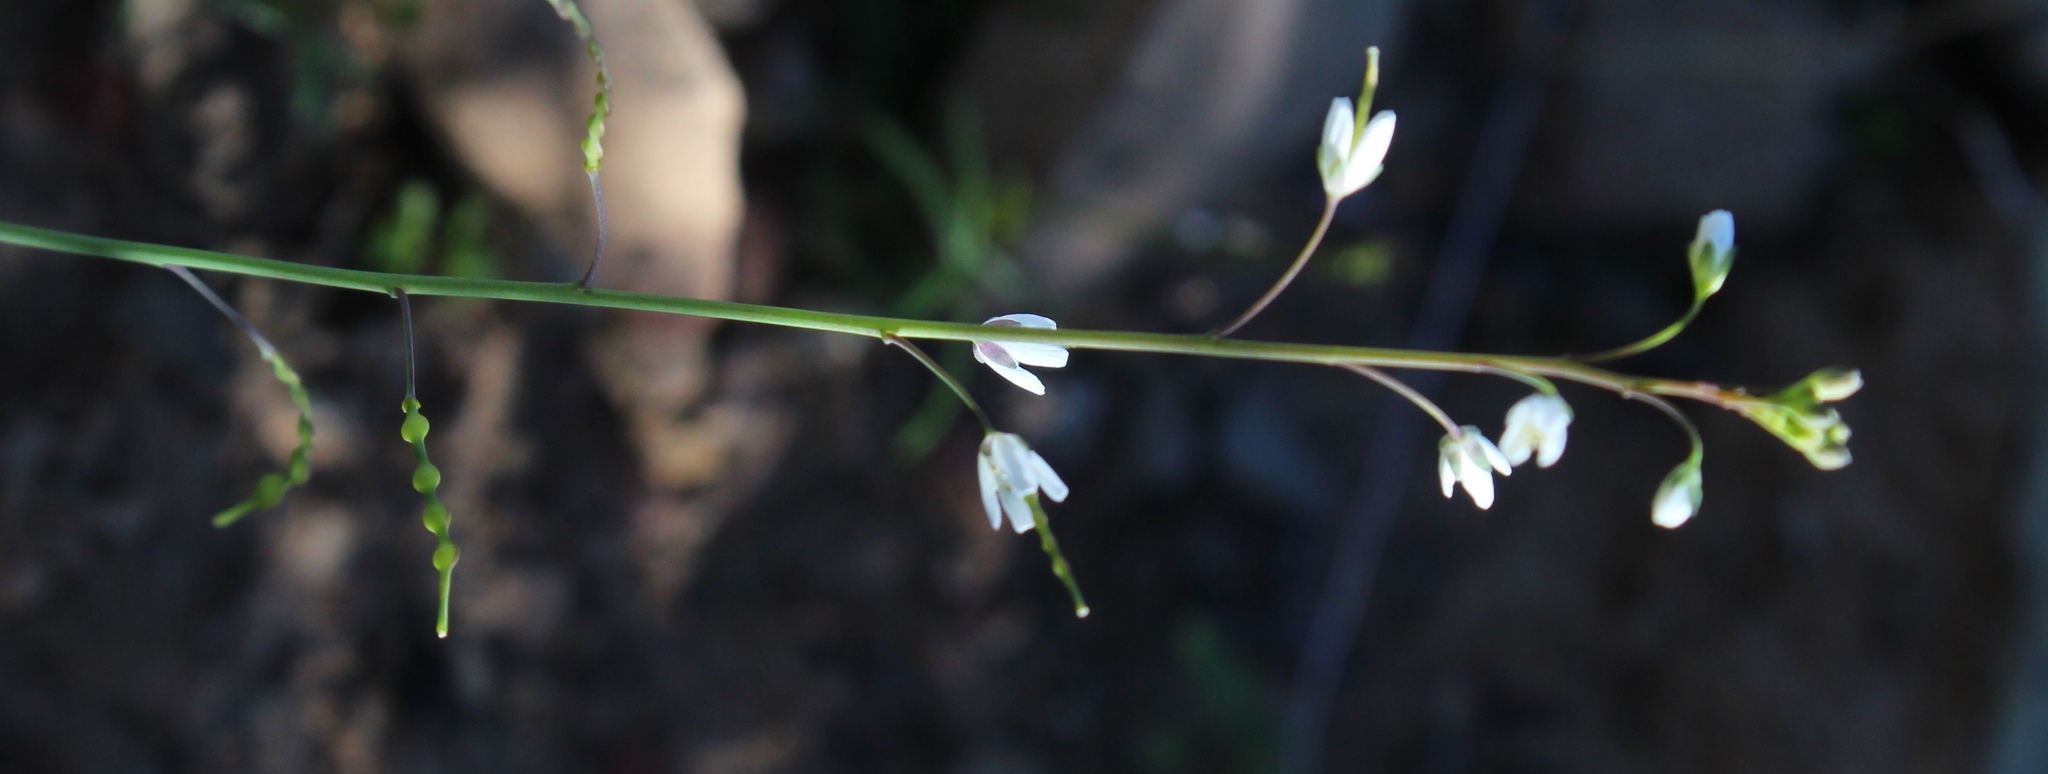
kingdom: Plantae
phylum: Tracheophyta
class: Magnoliopsida
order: Brassicales
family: Brassicaceae
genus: Heliophila
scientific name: Heliophila amplexicaulis
